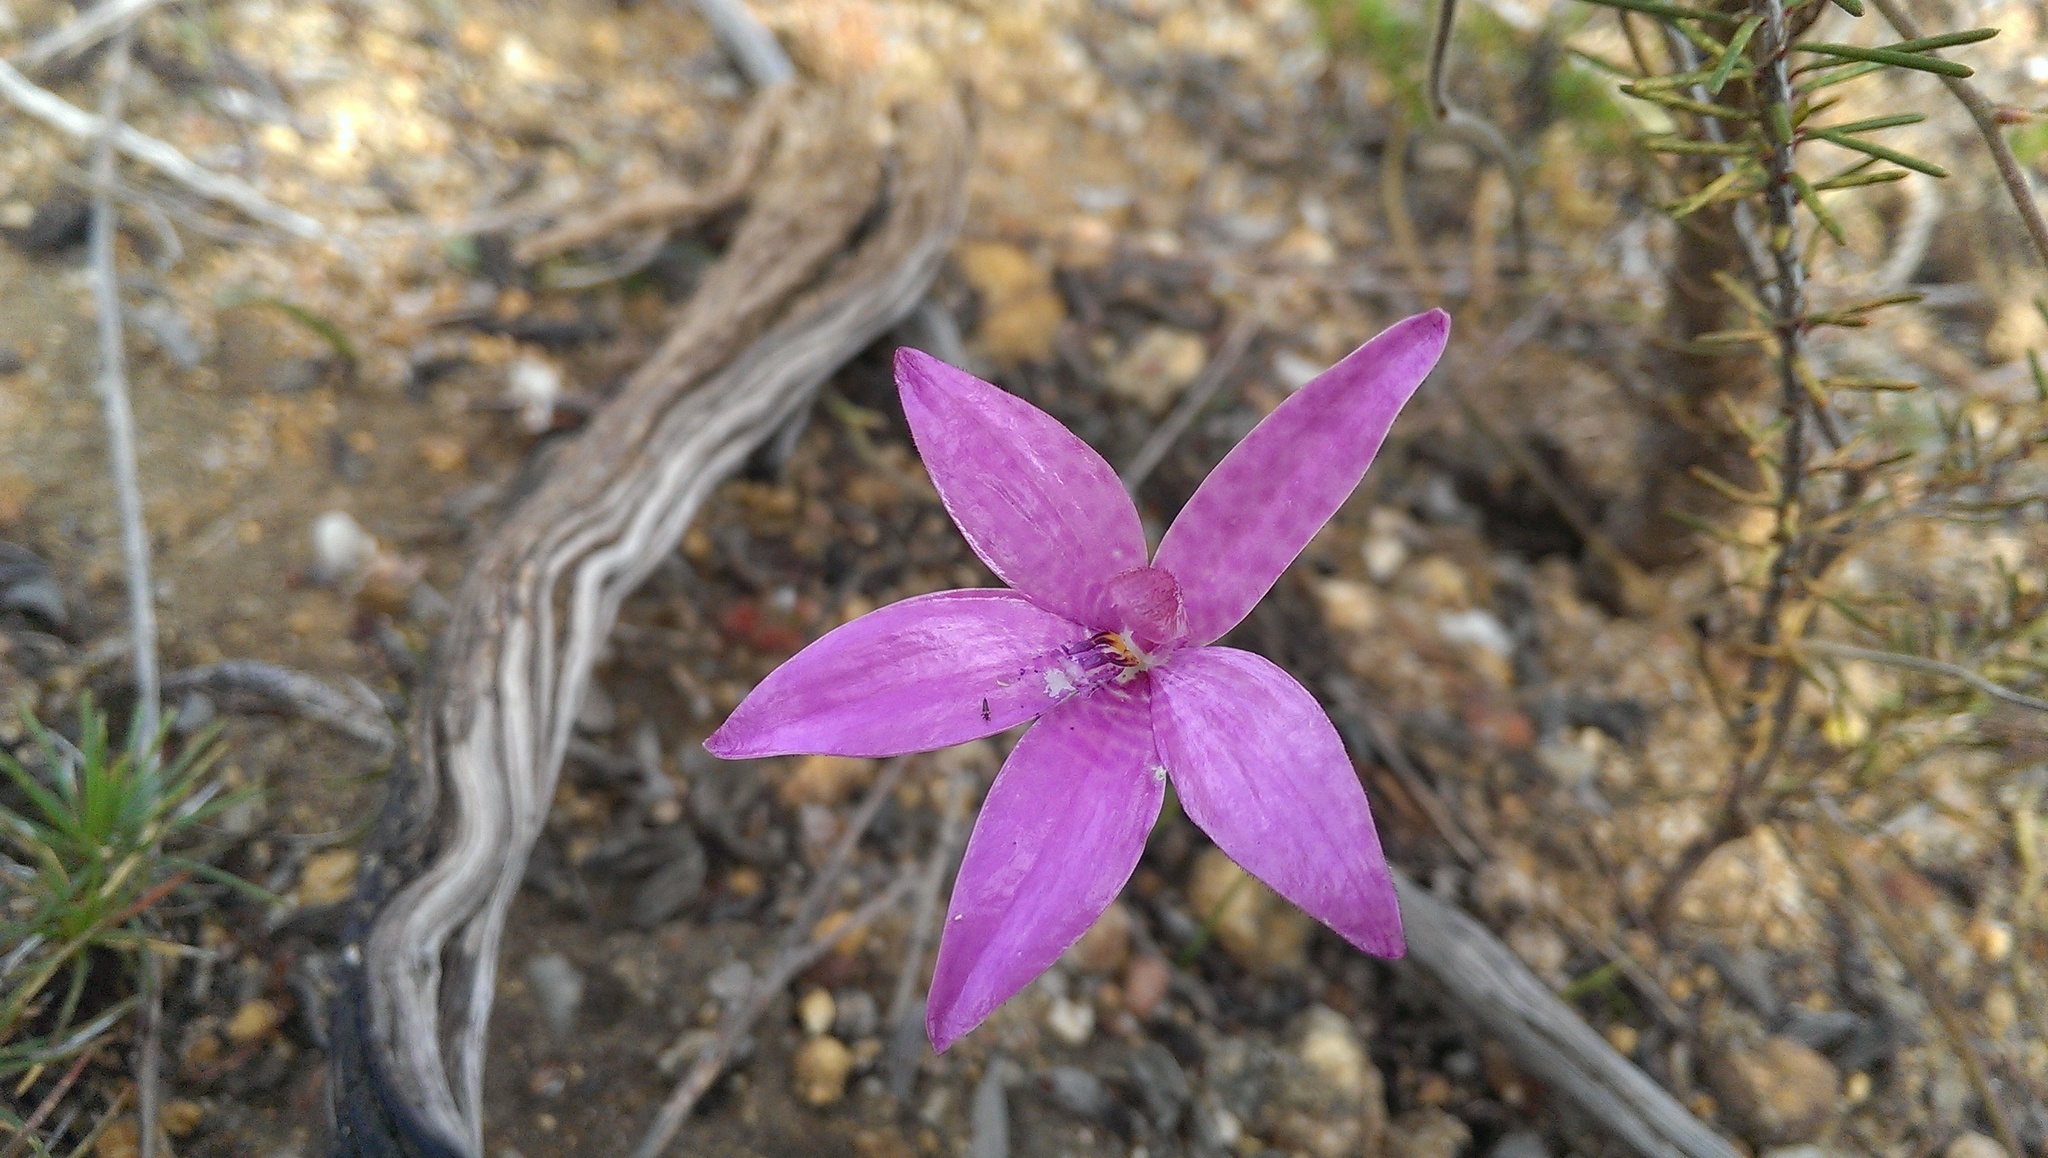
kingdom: Plantae
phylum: Tracheophyta
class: Liliopsida
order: Asparagales
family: Orchidaceae
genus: Caladenia
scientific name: Caladenia emarginata
